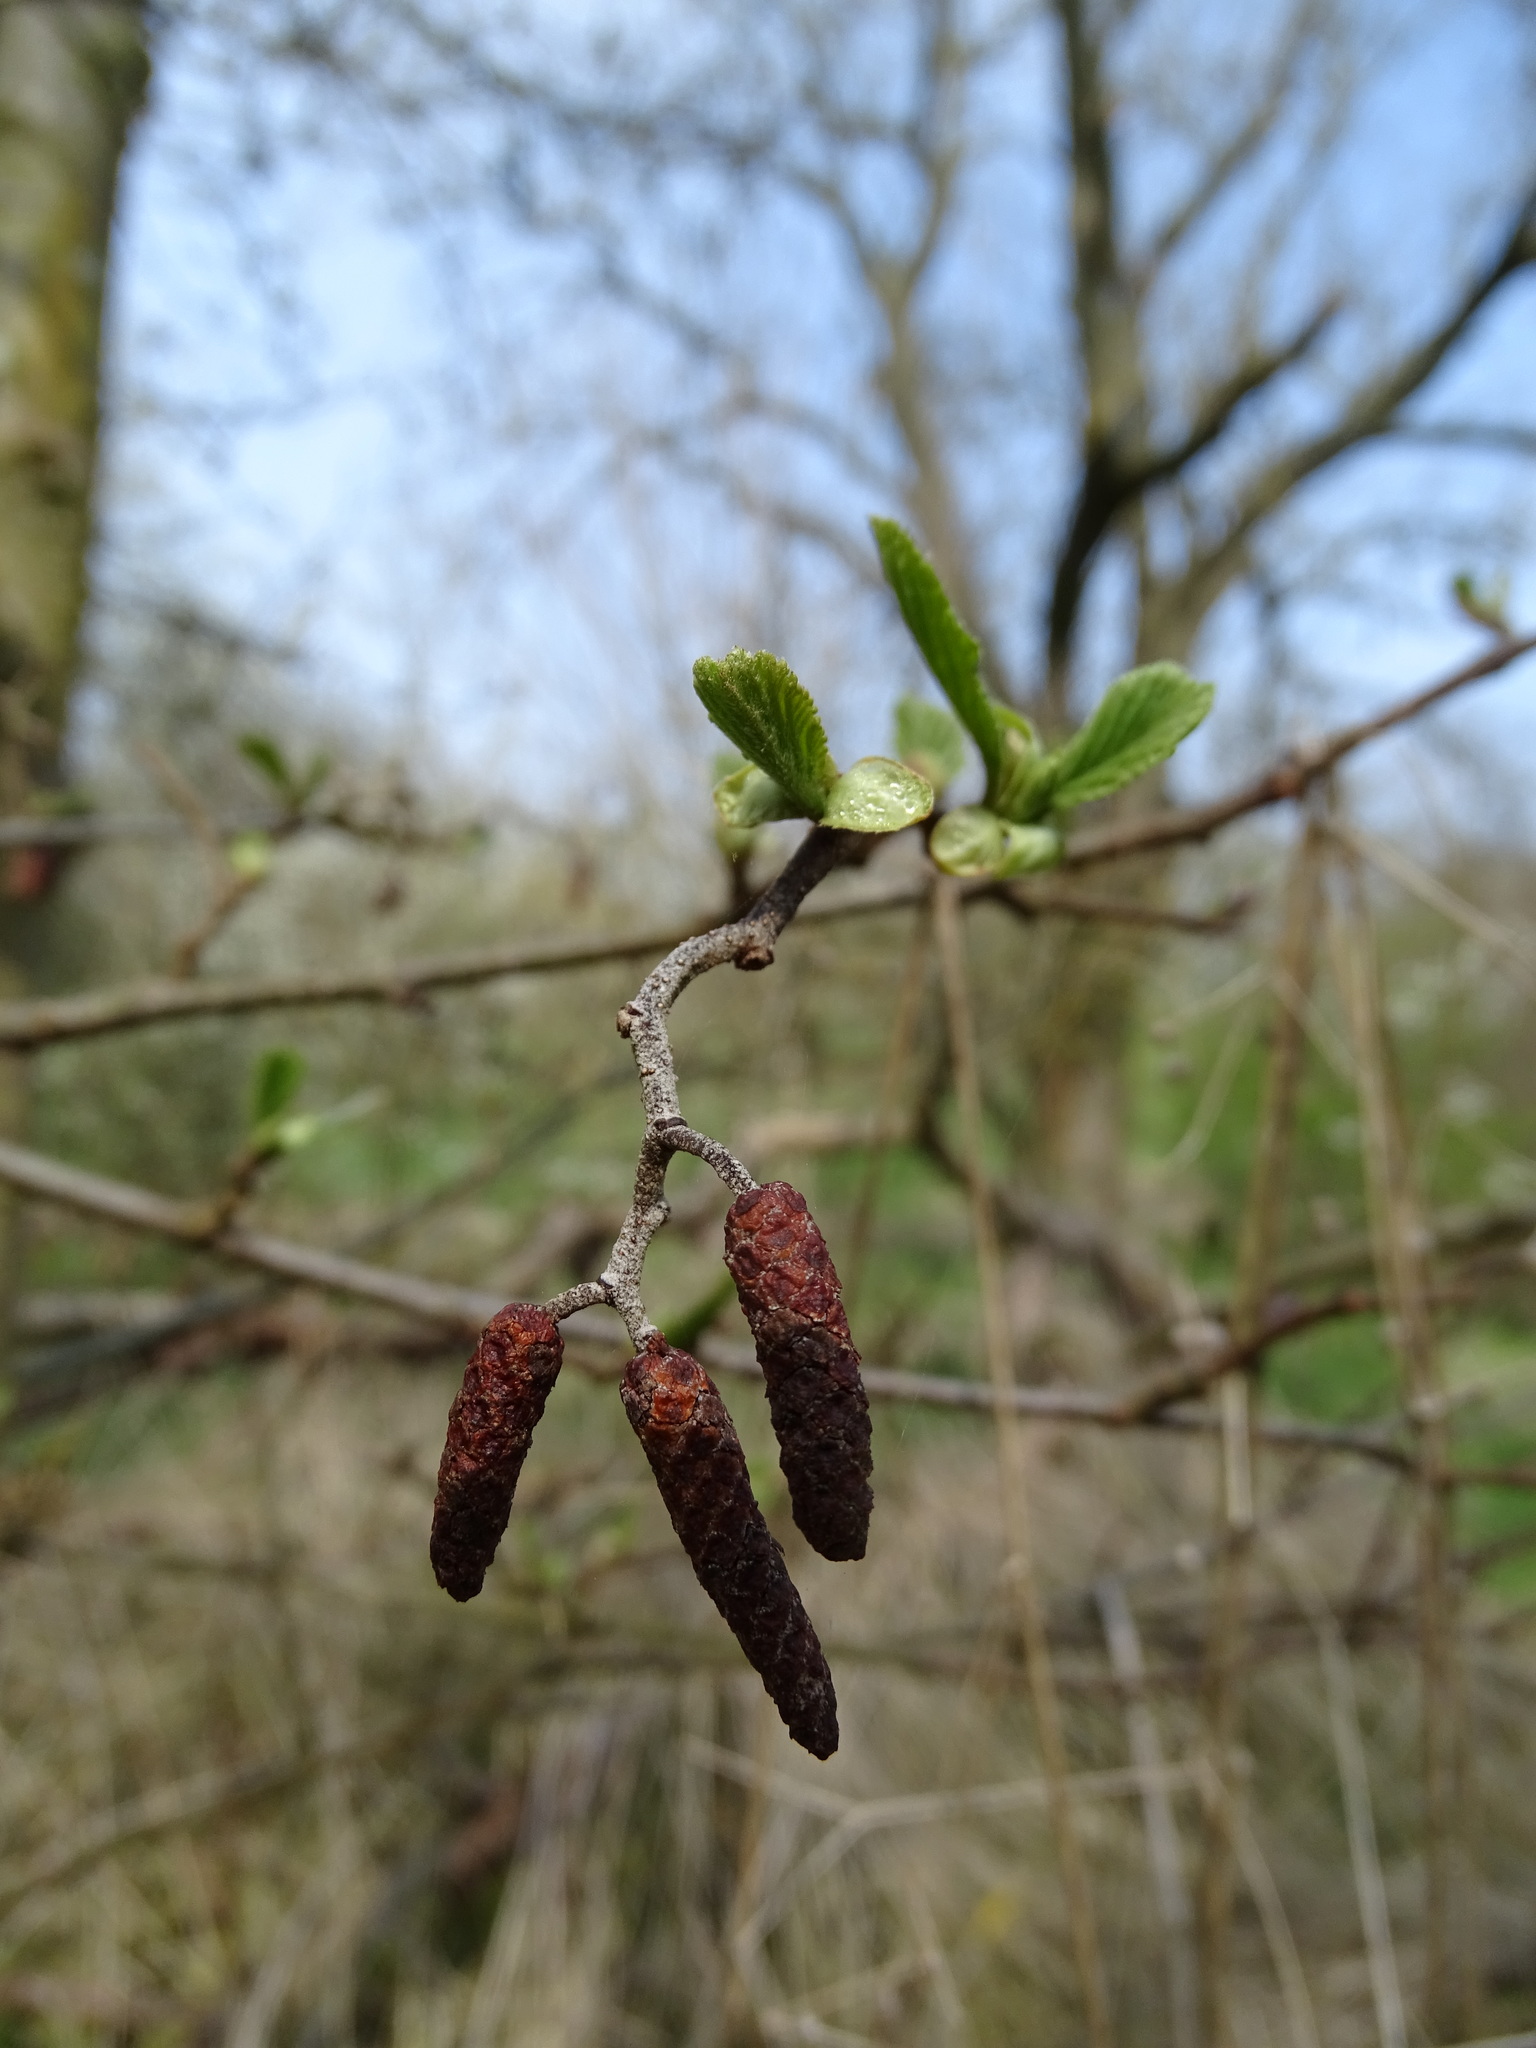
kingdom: Plantae
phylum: Tracheophyta
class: Magnoliopsida
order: Fagales
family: Betulaceae
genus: Alnus
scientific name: Alnus glutinosa
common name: Black alder
